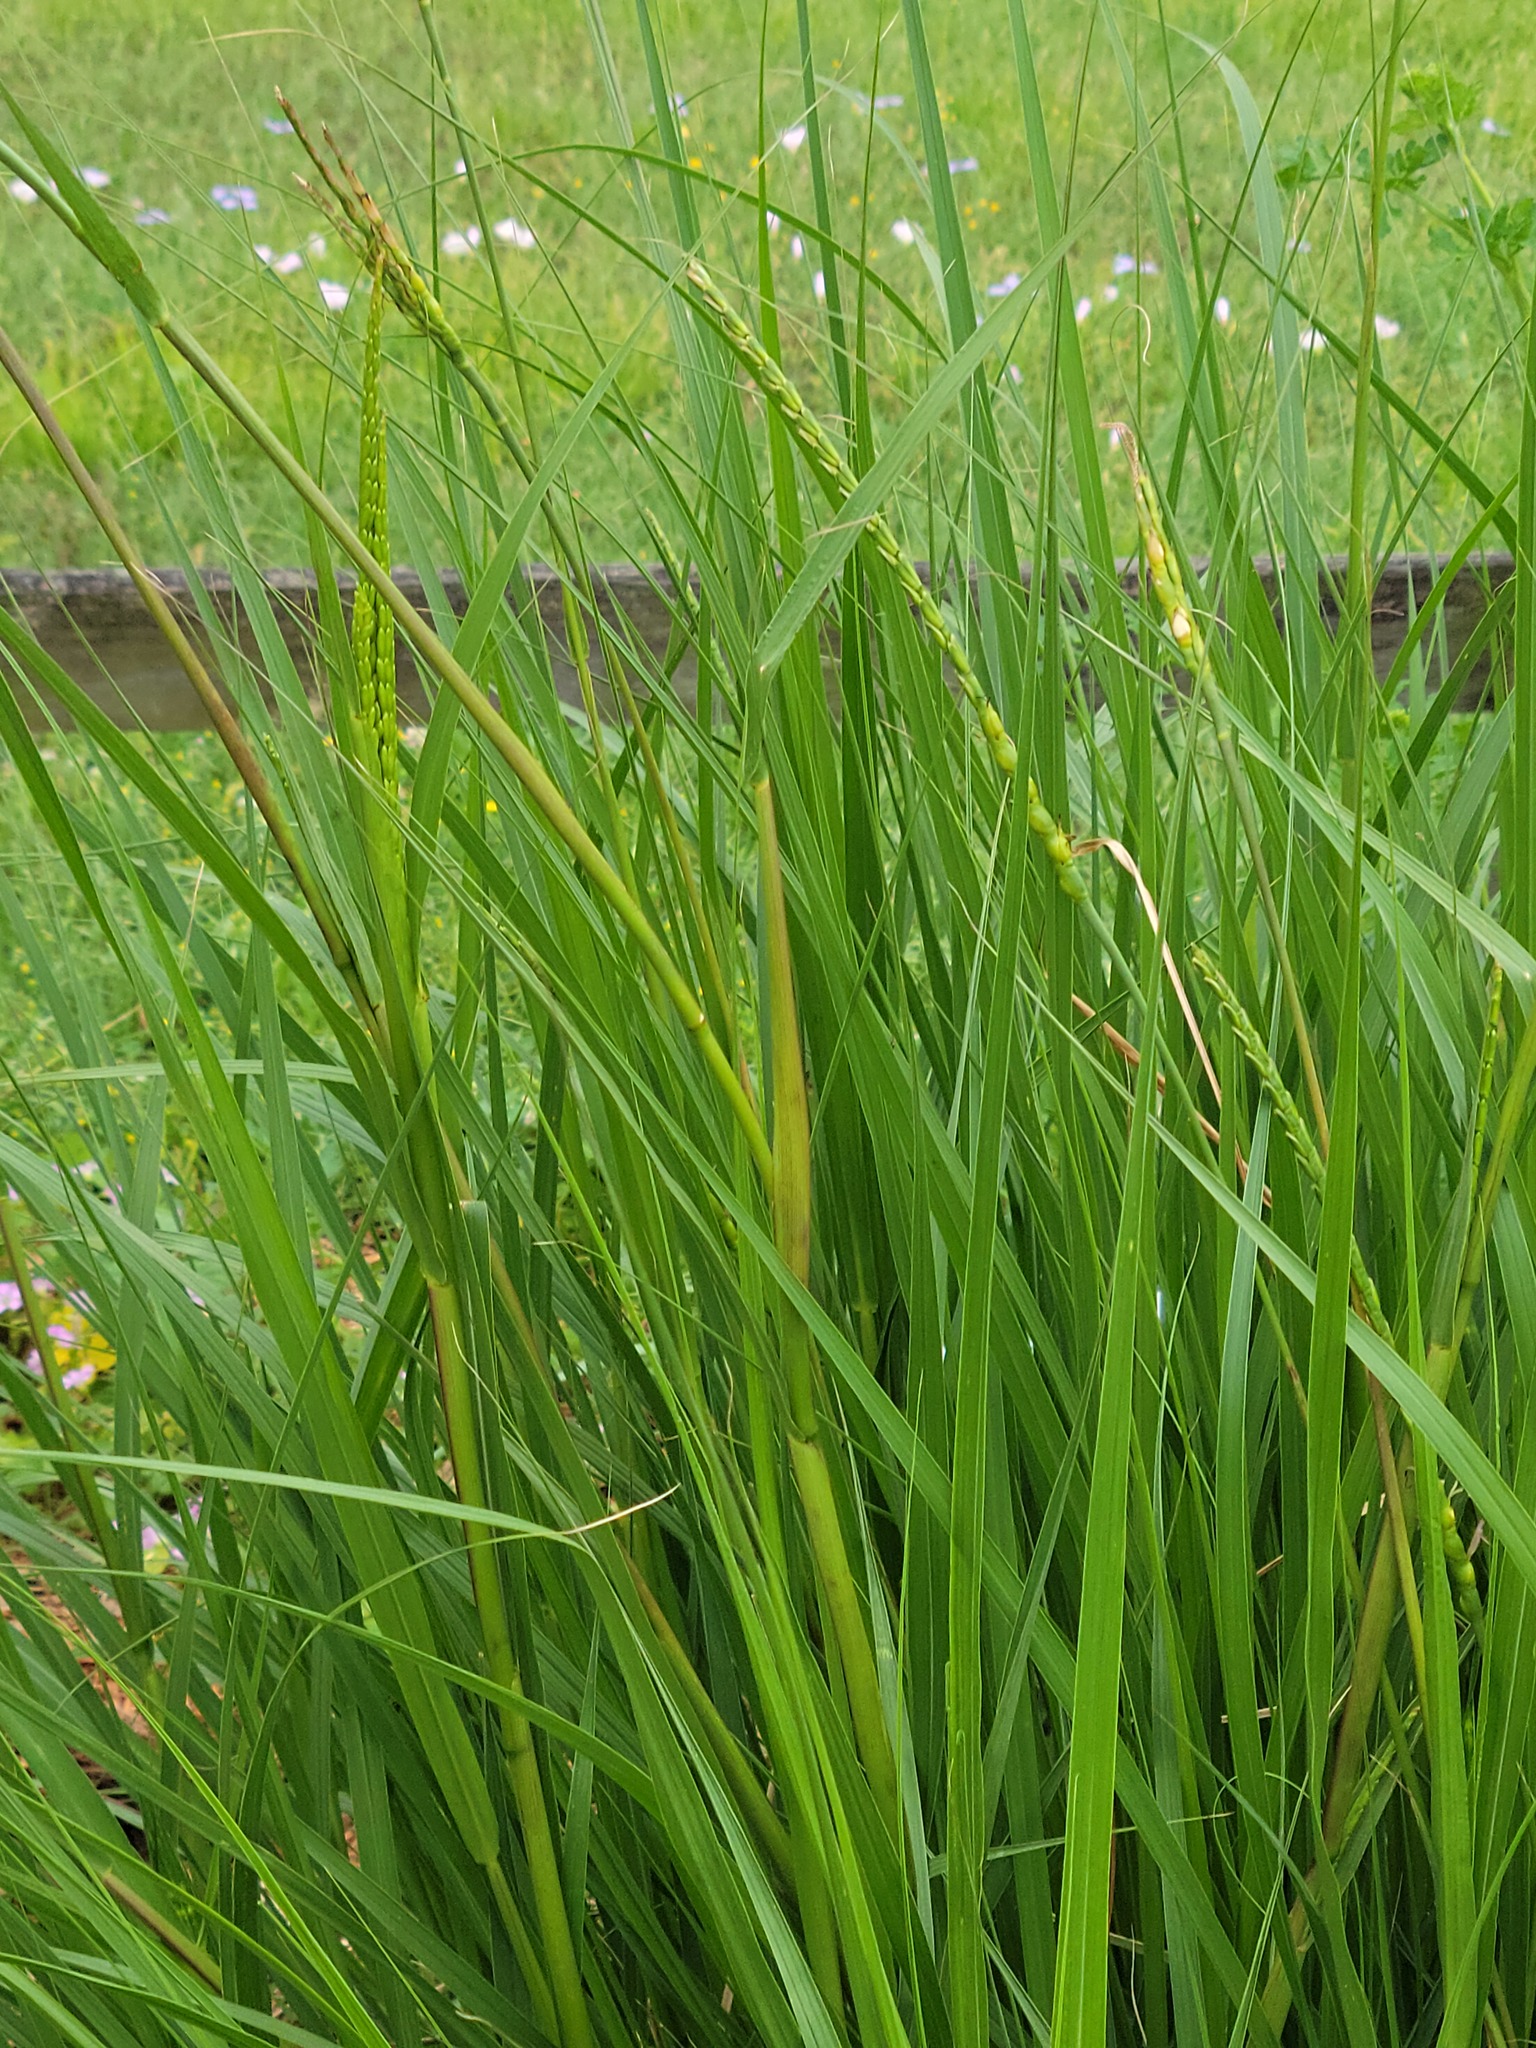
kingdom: Plantae
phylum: Tracheophyta
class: Liliopsida
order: Poales
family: Poaceae
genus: Tripsacum
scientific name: Tripsacum dactyloides
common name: Buffalo-grass
